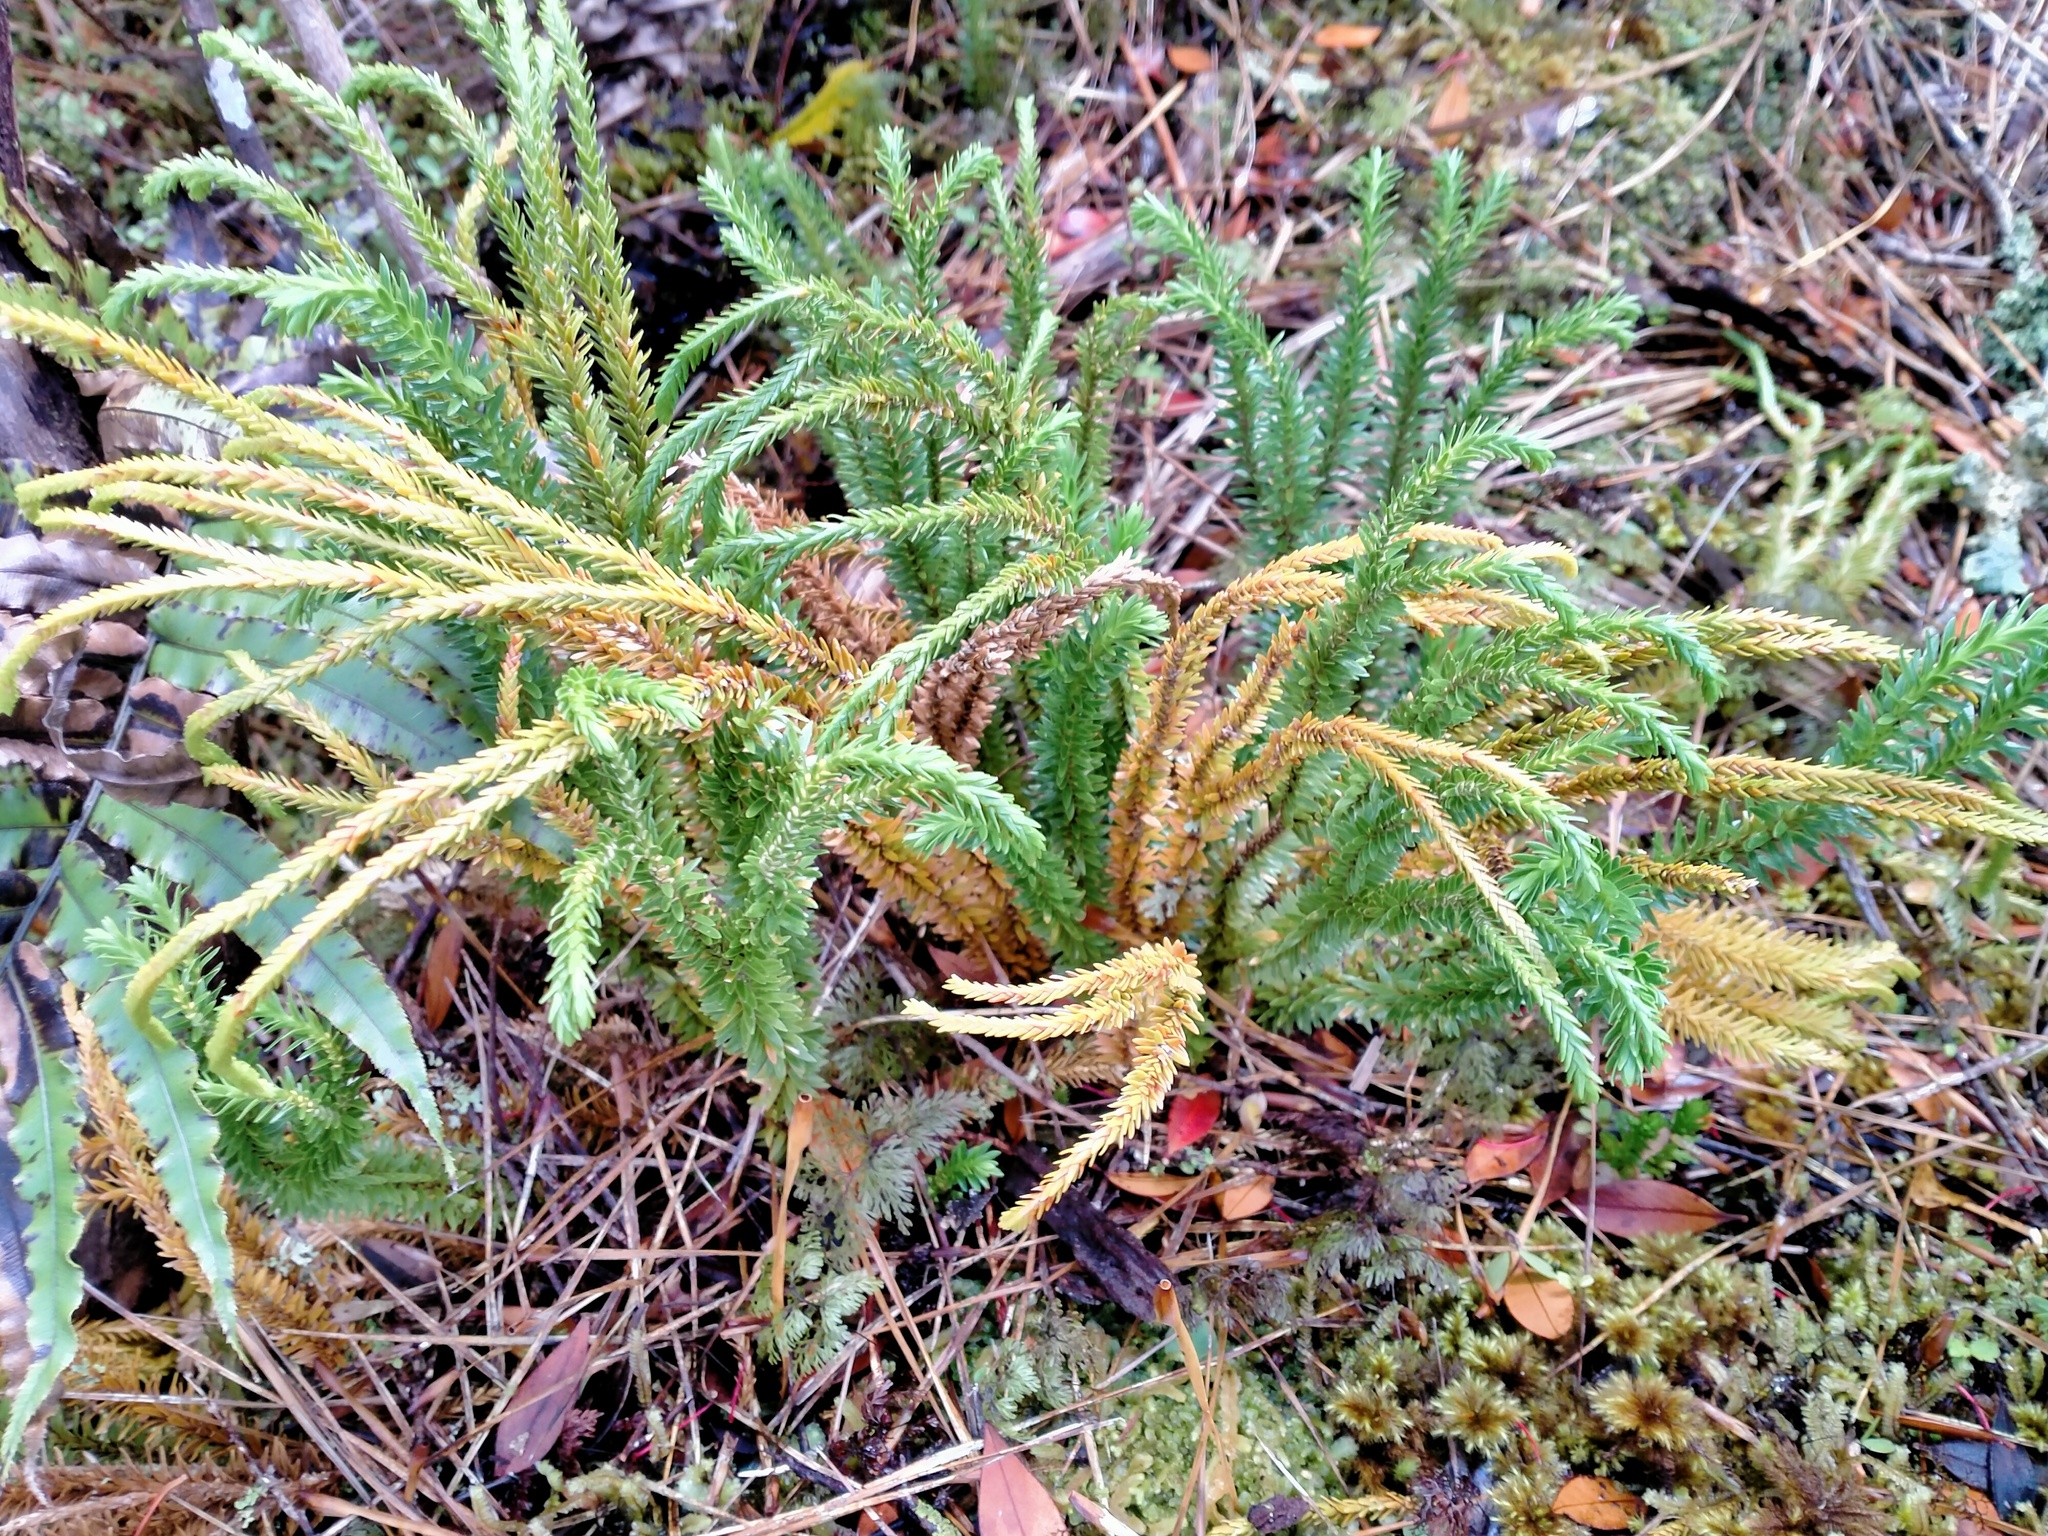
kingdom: Plantae
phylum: Tracheophyta
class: Lycopodiopsida
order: Lycopodiales
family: Lycopodiaceae
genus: Phlegmariurus
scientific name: Phlegmariurus varius
